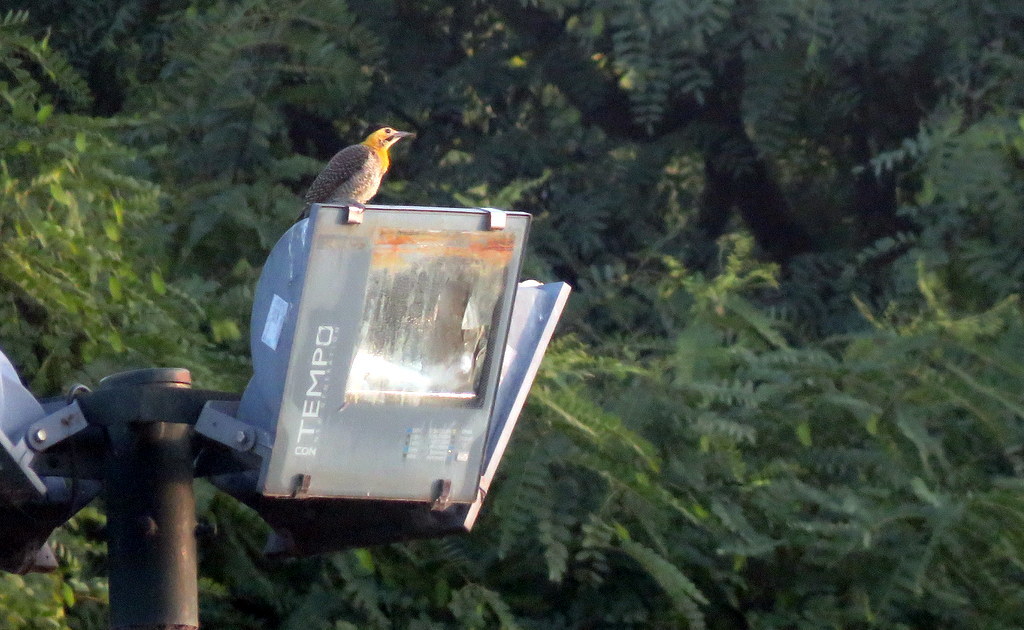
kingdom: Animalia
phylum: Chordata
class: Aves
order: Piciformes
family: Picidae
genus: Colaptes
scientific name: Colaptes campestris
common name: Campo flicker
